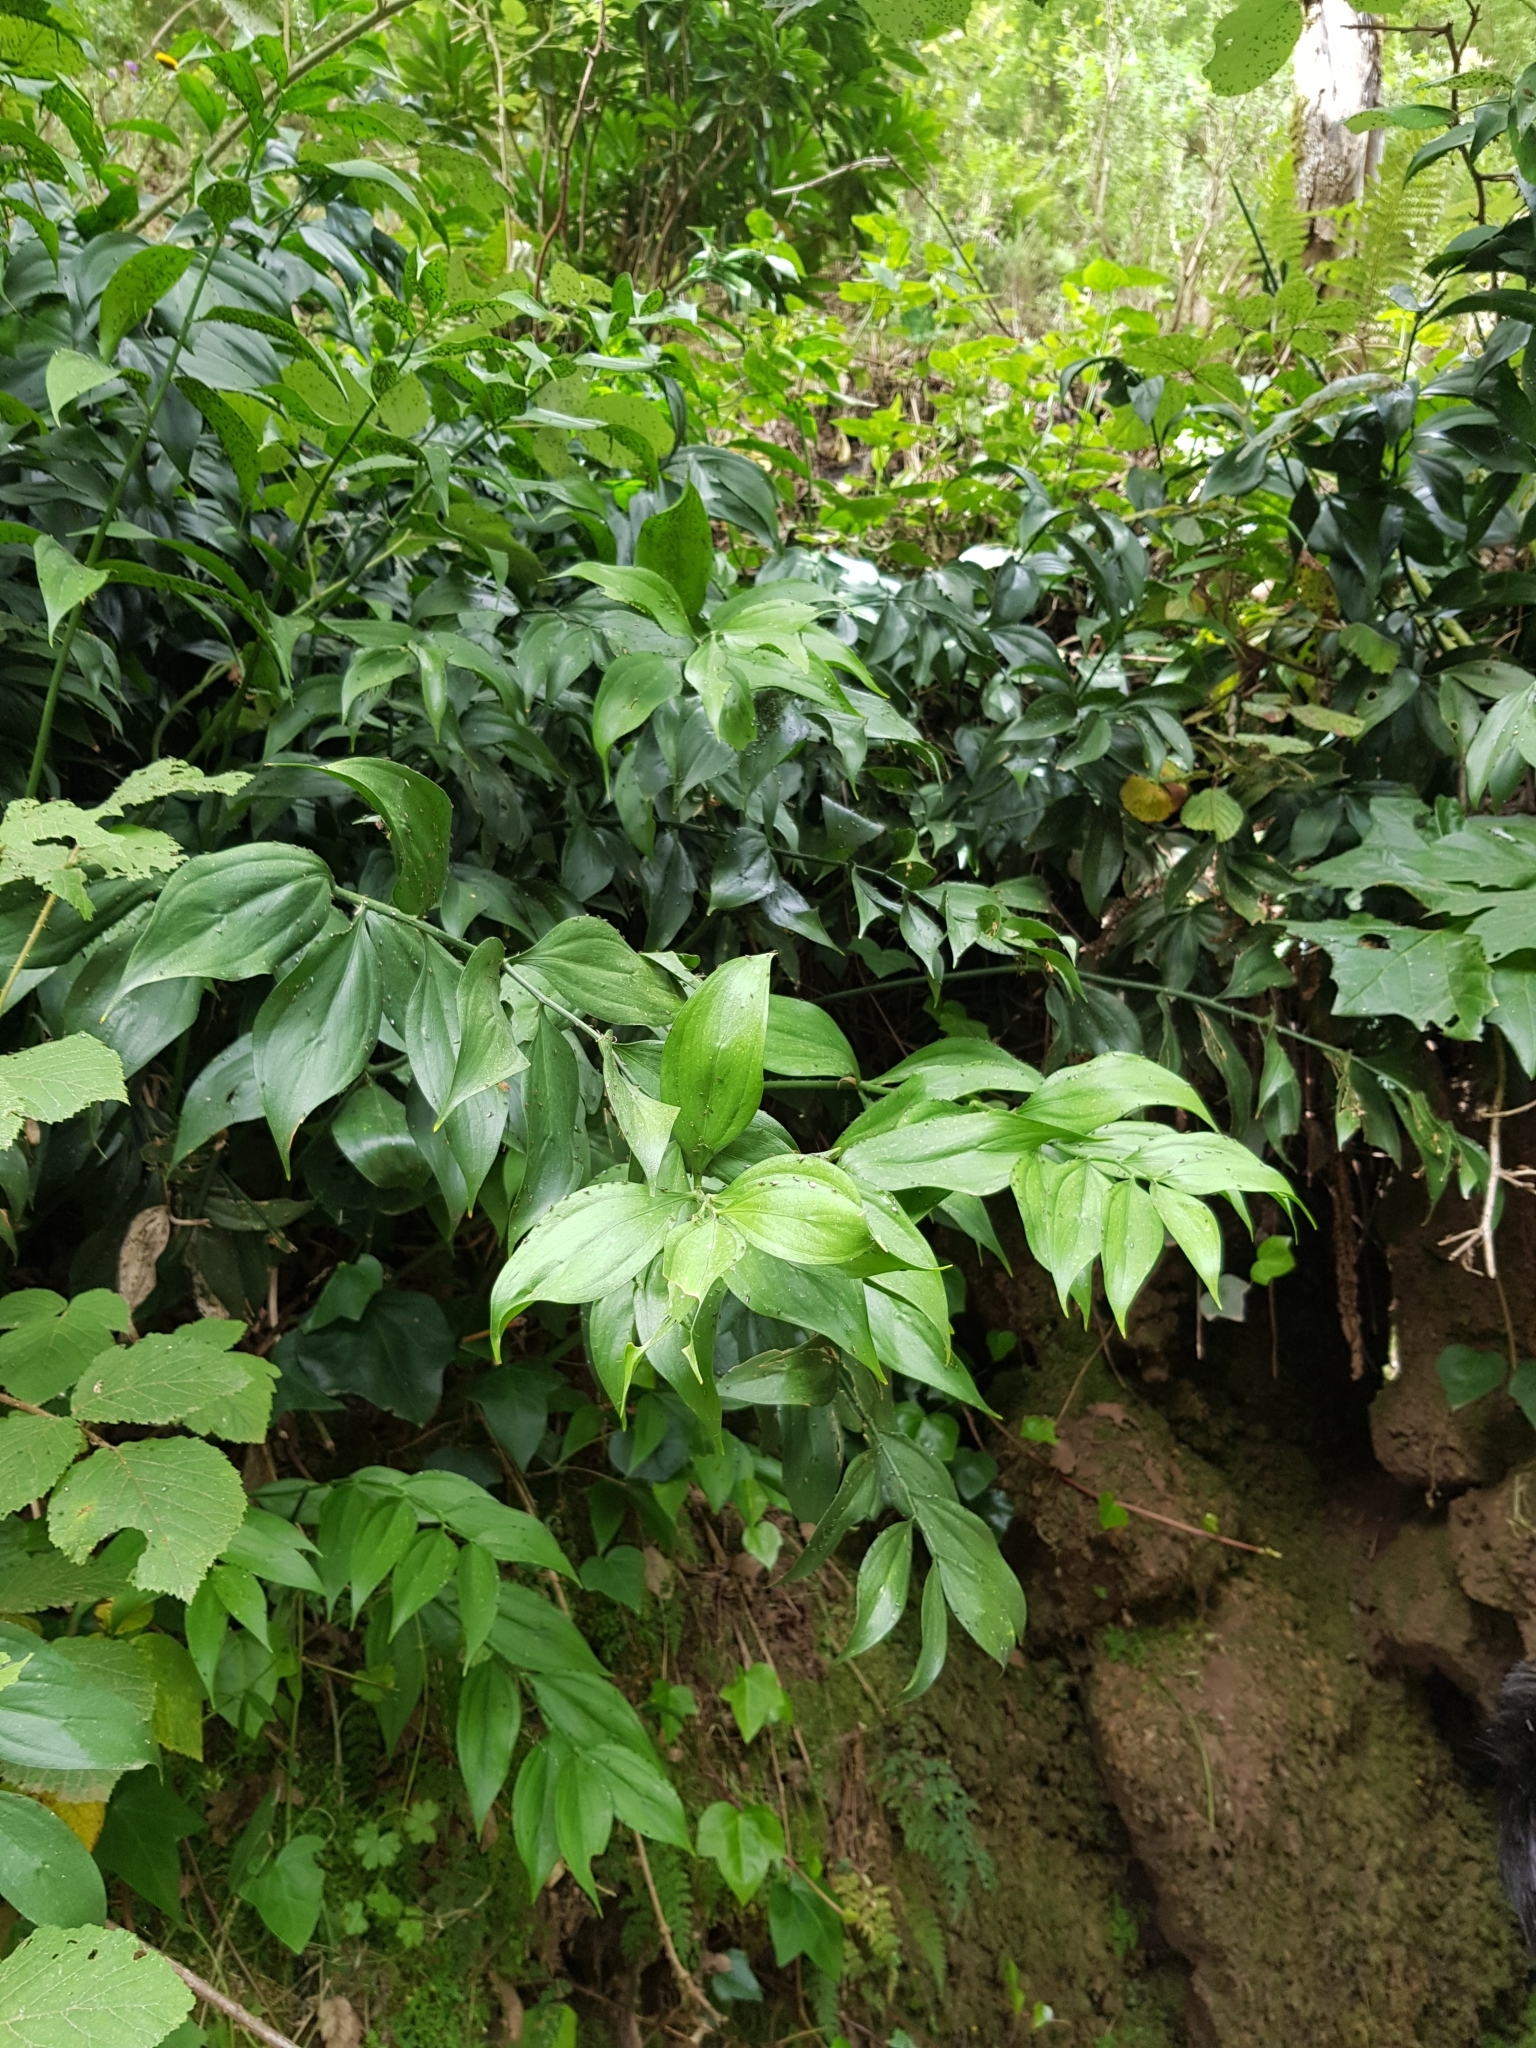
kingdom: Plantae
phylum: Tracheophyta
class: Liliopsida
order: Asparagales
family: Asparagaceae
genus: Ruscus
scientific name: Ruscus hypophyllum
